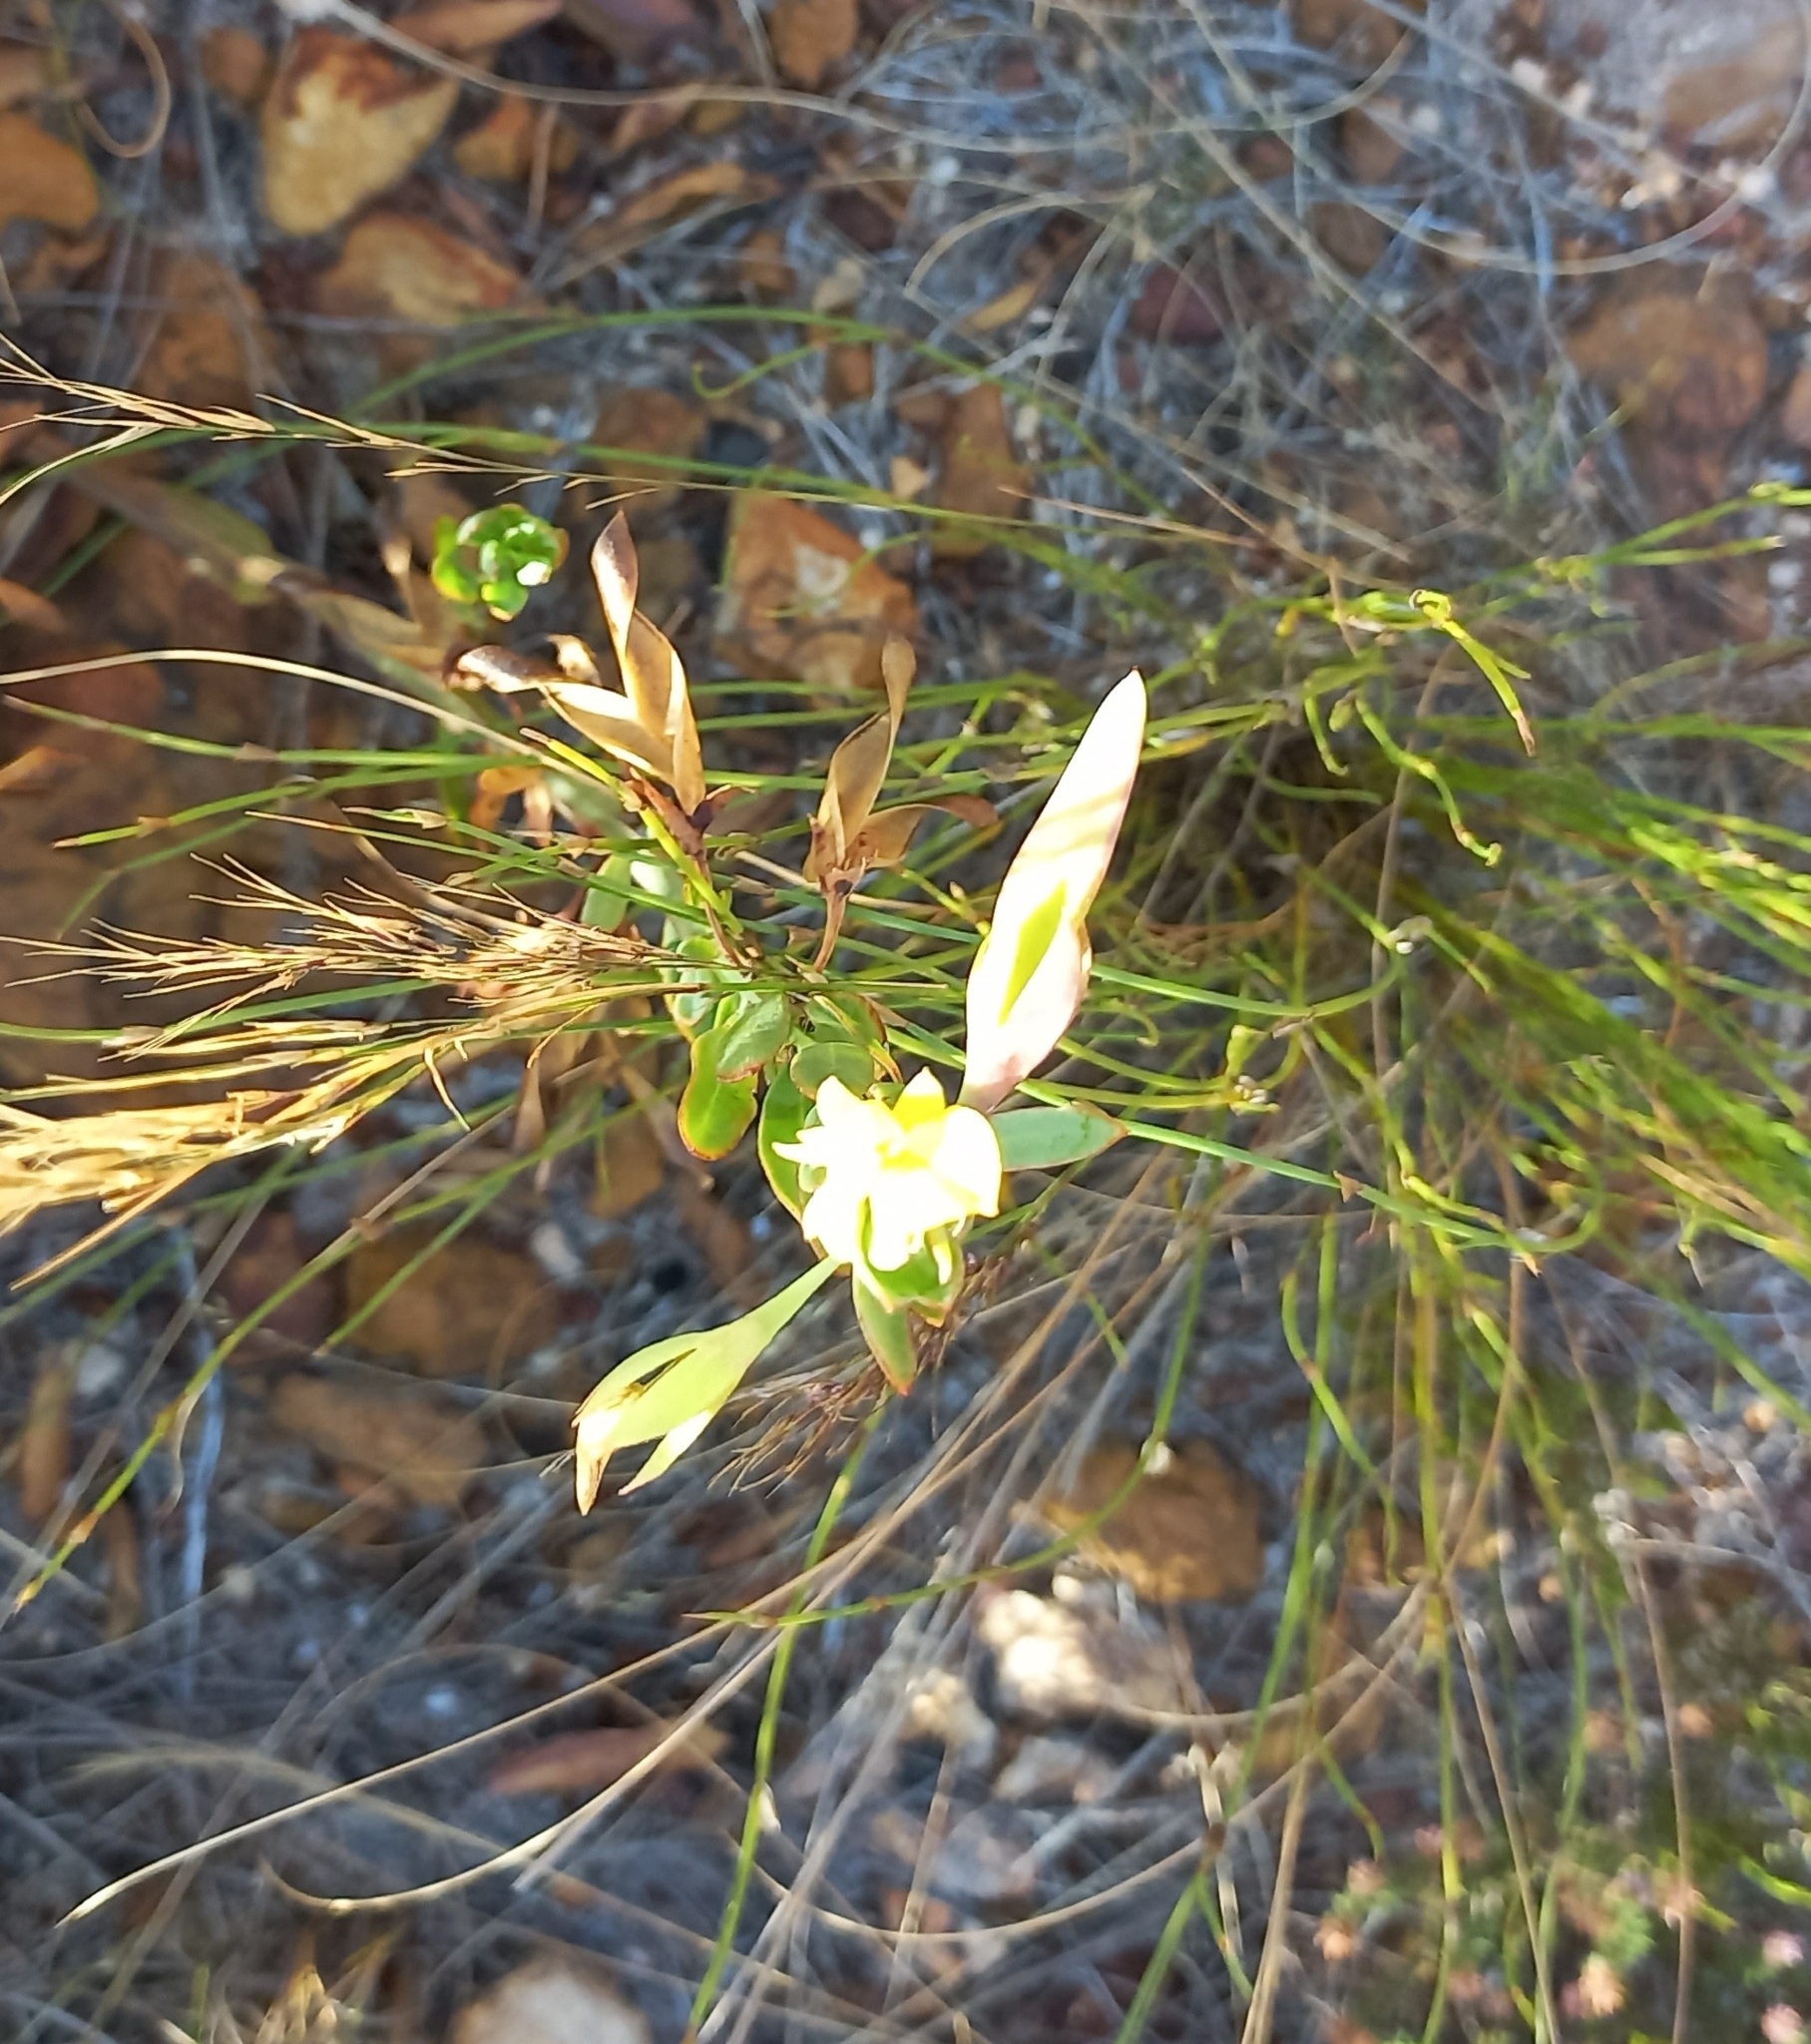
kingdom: Plantae
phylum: Tracheophyta
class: Magnoliopsida
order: Fabales
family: Fabaceae
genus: Rafnia
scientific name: Rafnia crassifolia
